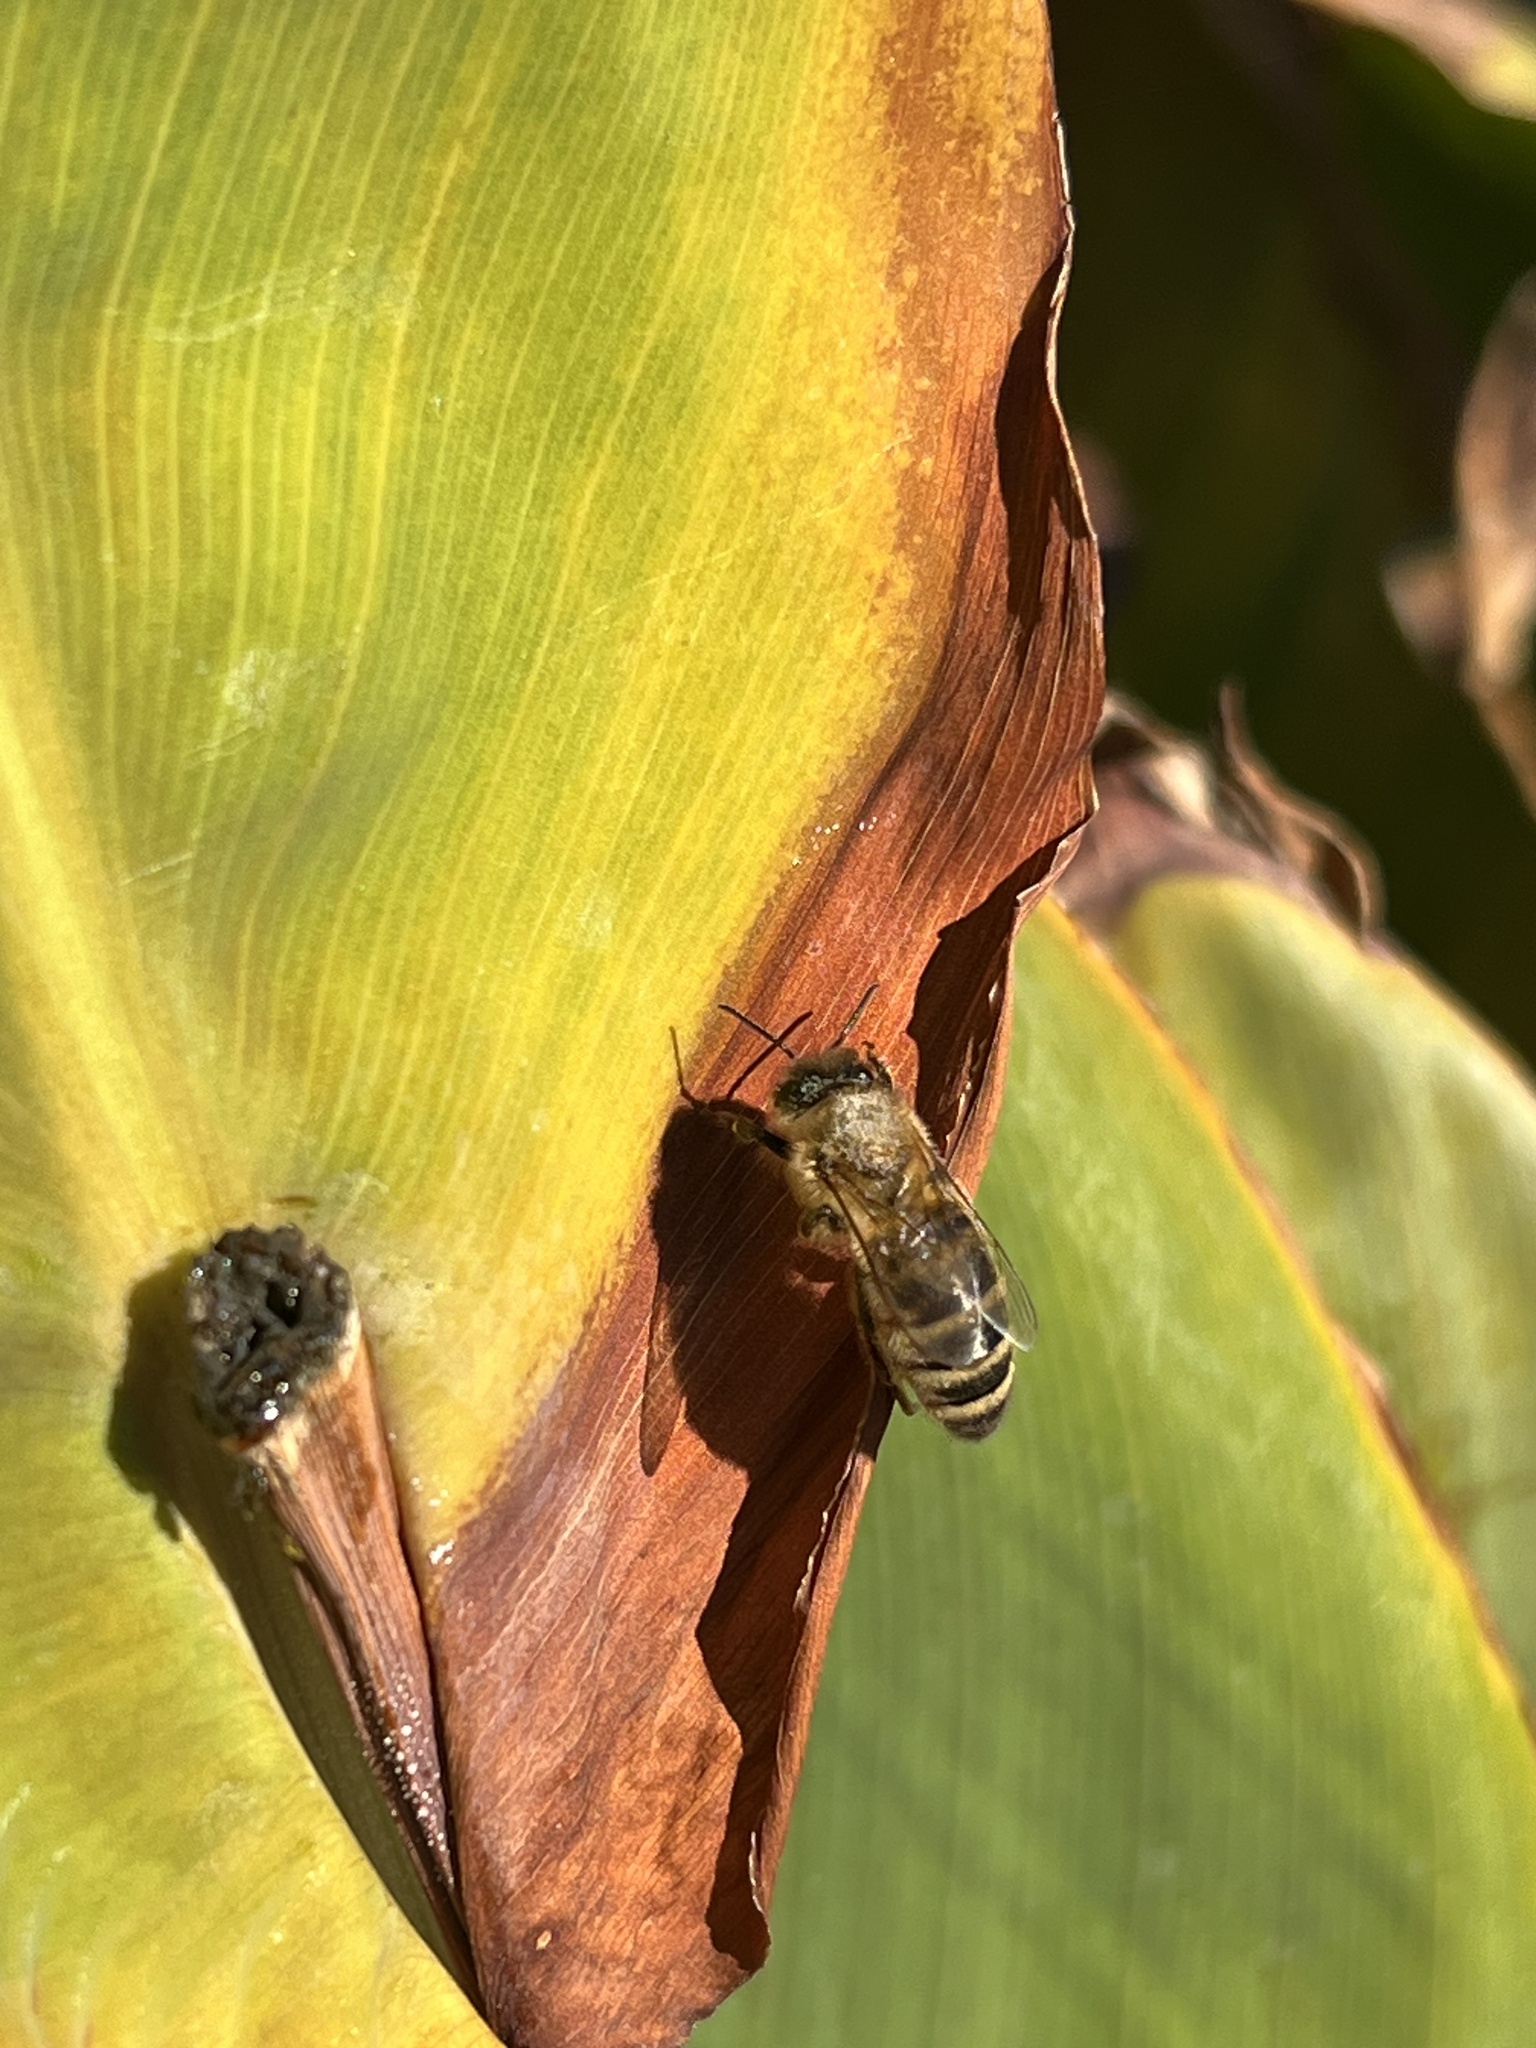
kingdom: Animalia
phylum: Arthropoda
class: Insecta
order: Hymenoptera
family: Apidae
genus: Apis
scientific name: Apis mellifera
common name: Honey bee
